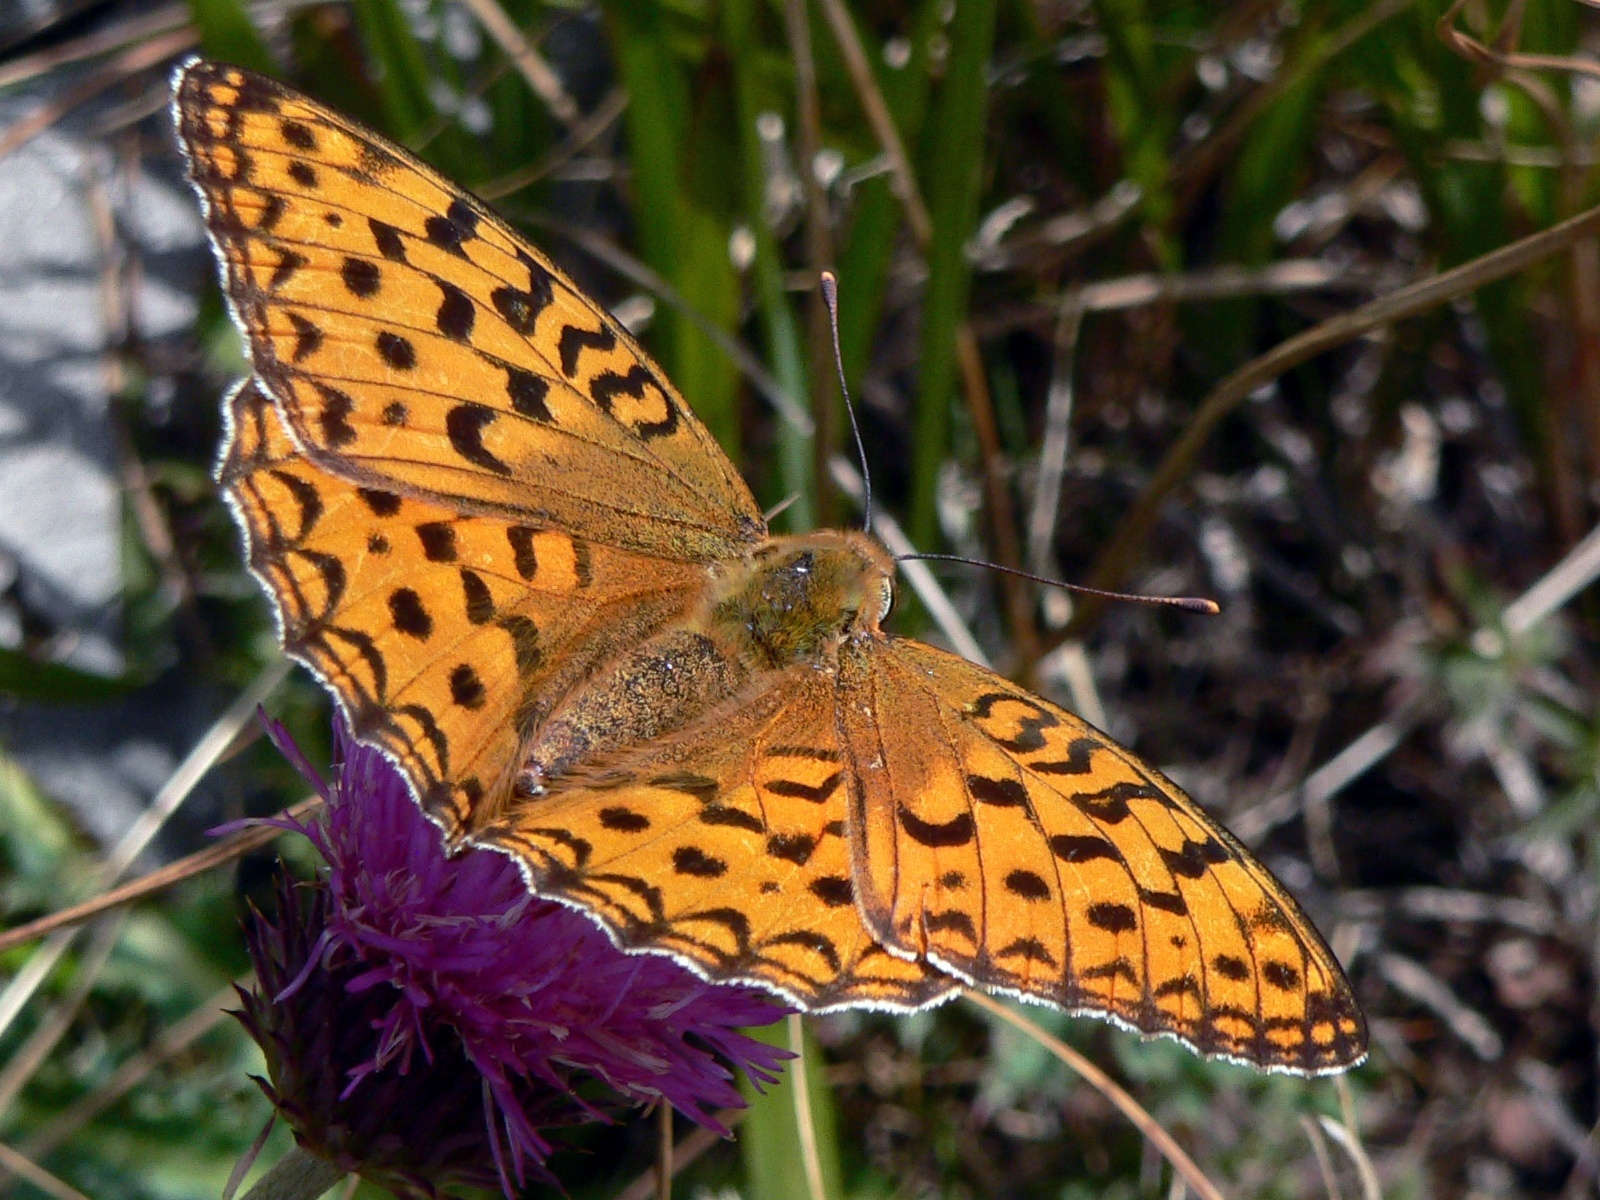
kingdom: Animalia
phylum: Arthropoda
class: Insecta
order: Lepidoptera
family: Nymphalidae
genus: Fabriciana
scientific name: Fabriciana adippe
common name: High brown fritillary
